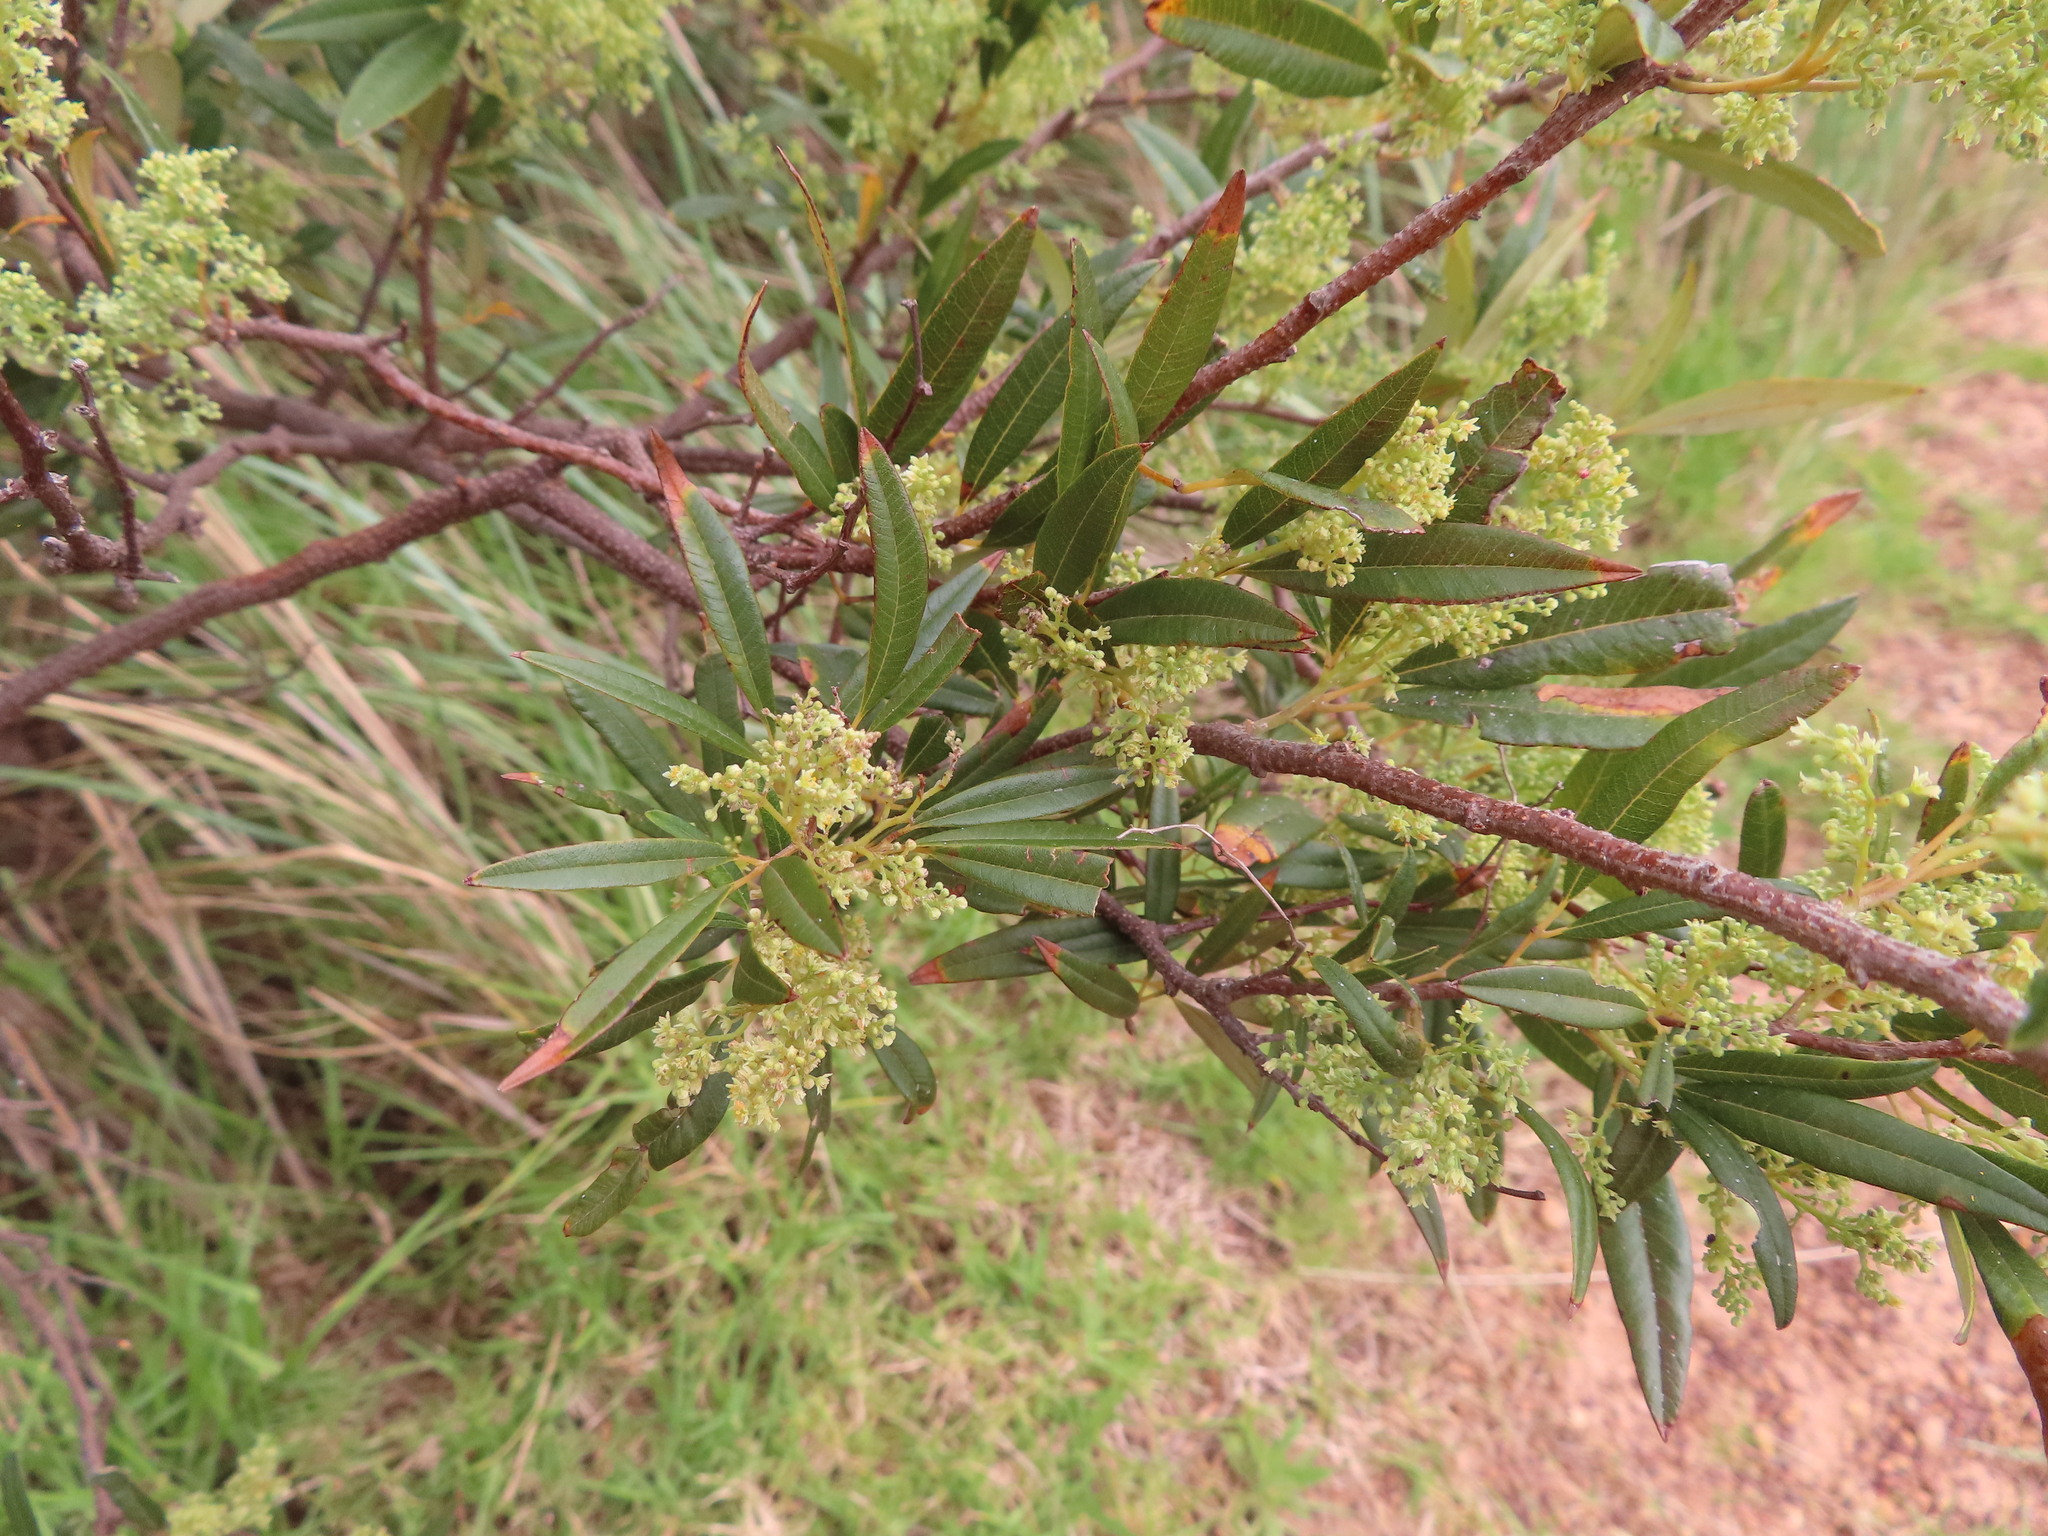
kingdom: Plantae
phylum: Tracheophyta
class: Magnoliopsida
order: Sapindales
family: Anacardiaceae
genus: Searsia
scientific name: Searsia angustifolia
